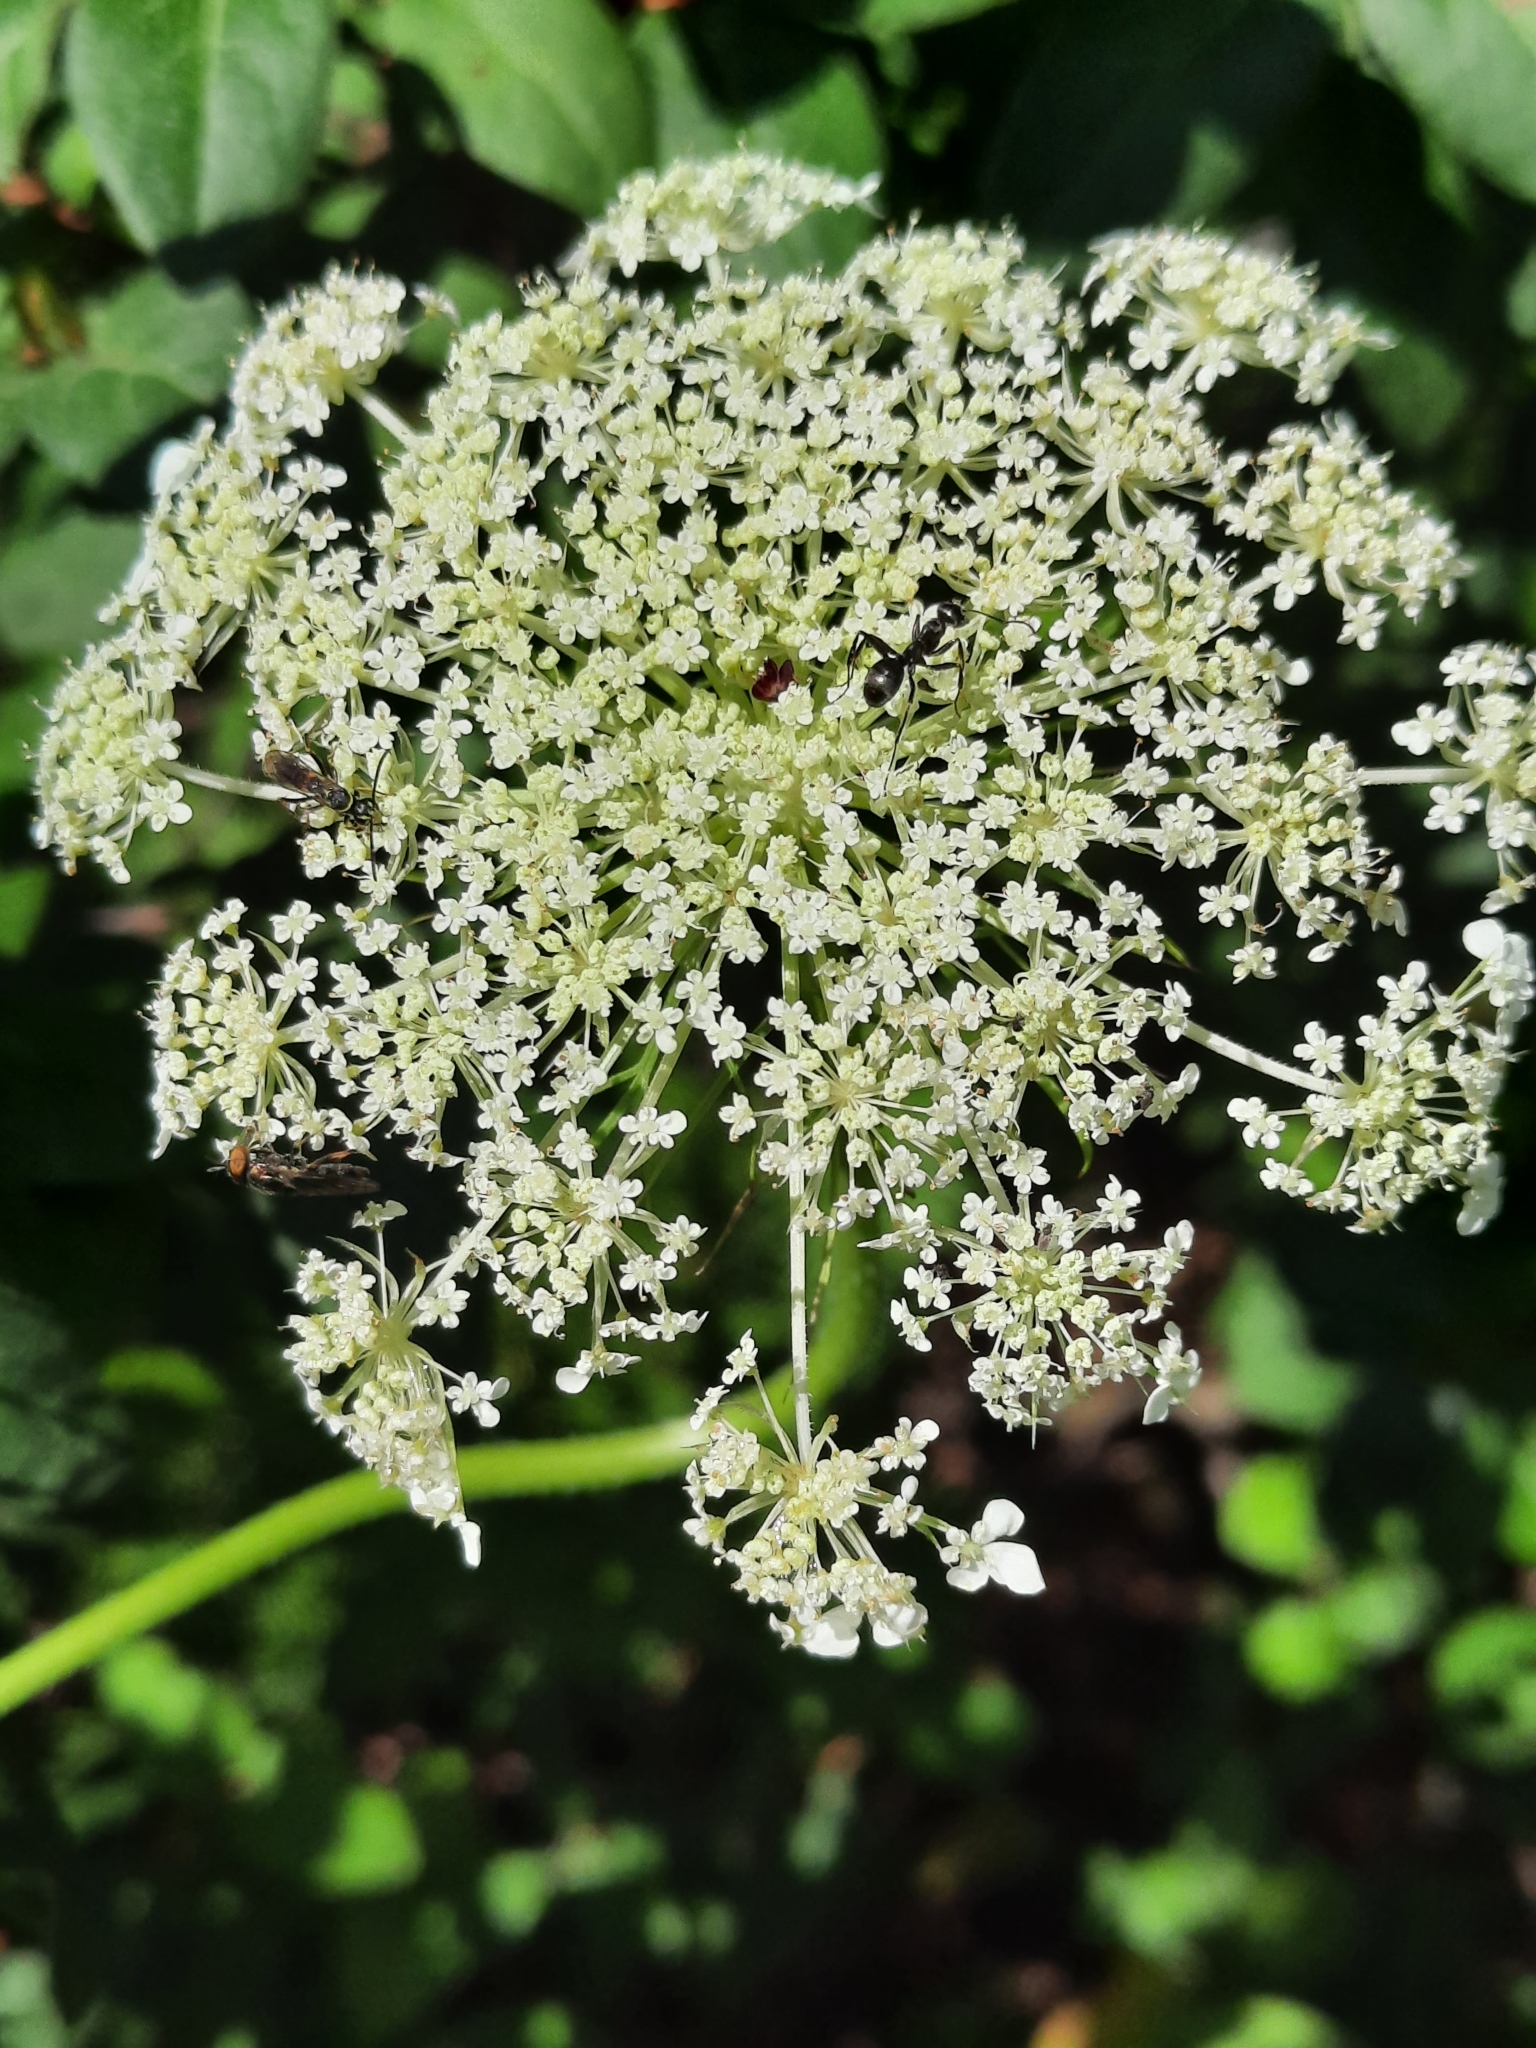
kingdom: Plantae
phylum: Tracheophyta
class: Magnoliopsida
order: Apiales
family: Apiaceae
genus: Daucus
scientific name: Daucus carota
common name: Wild carrot
